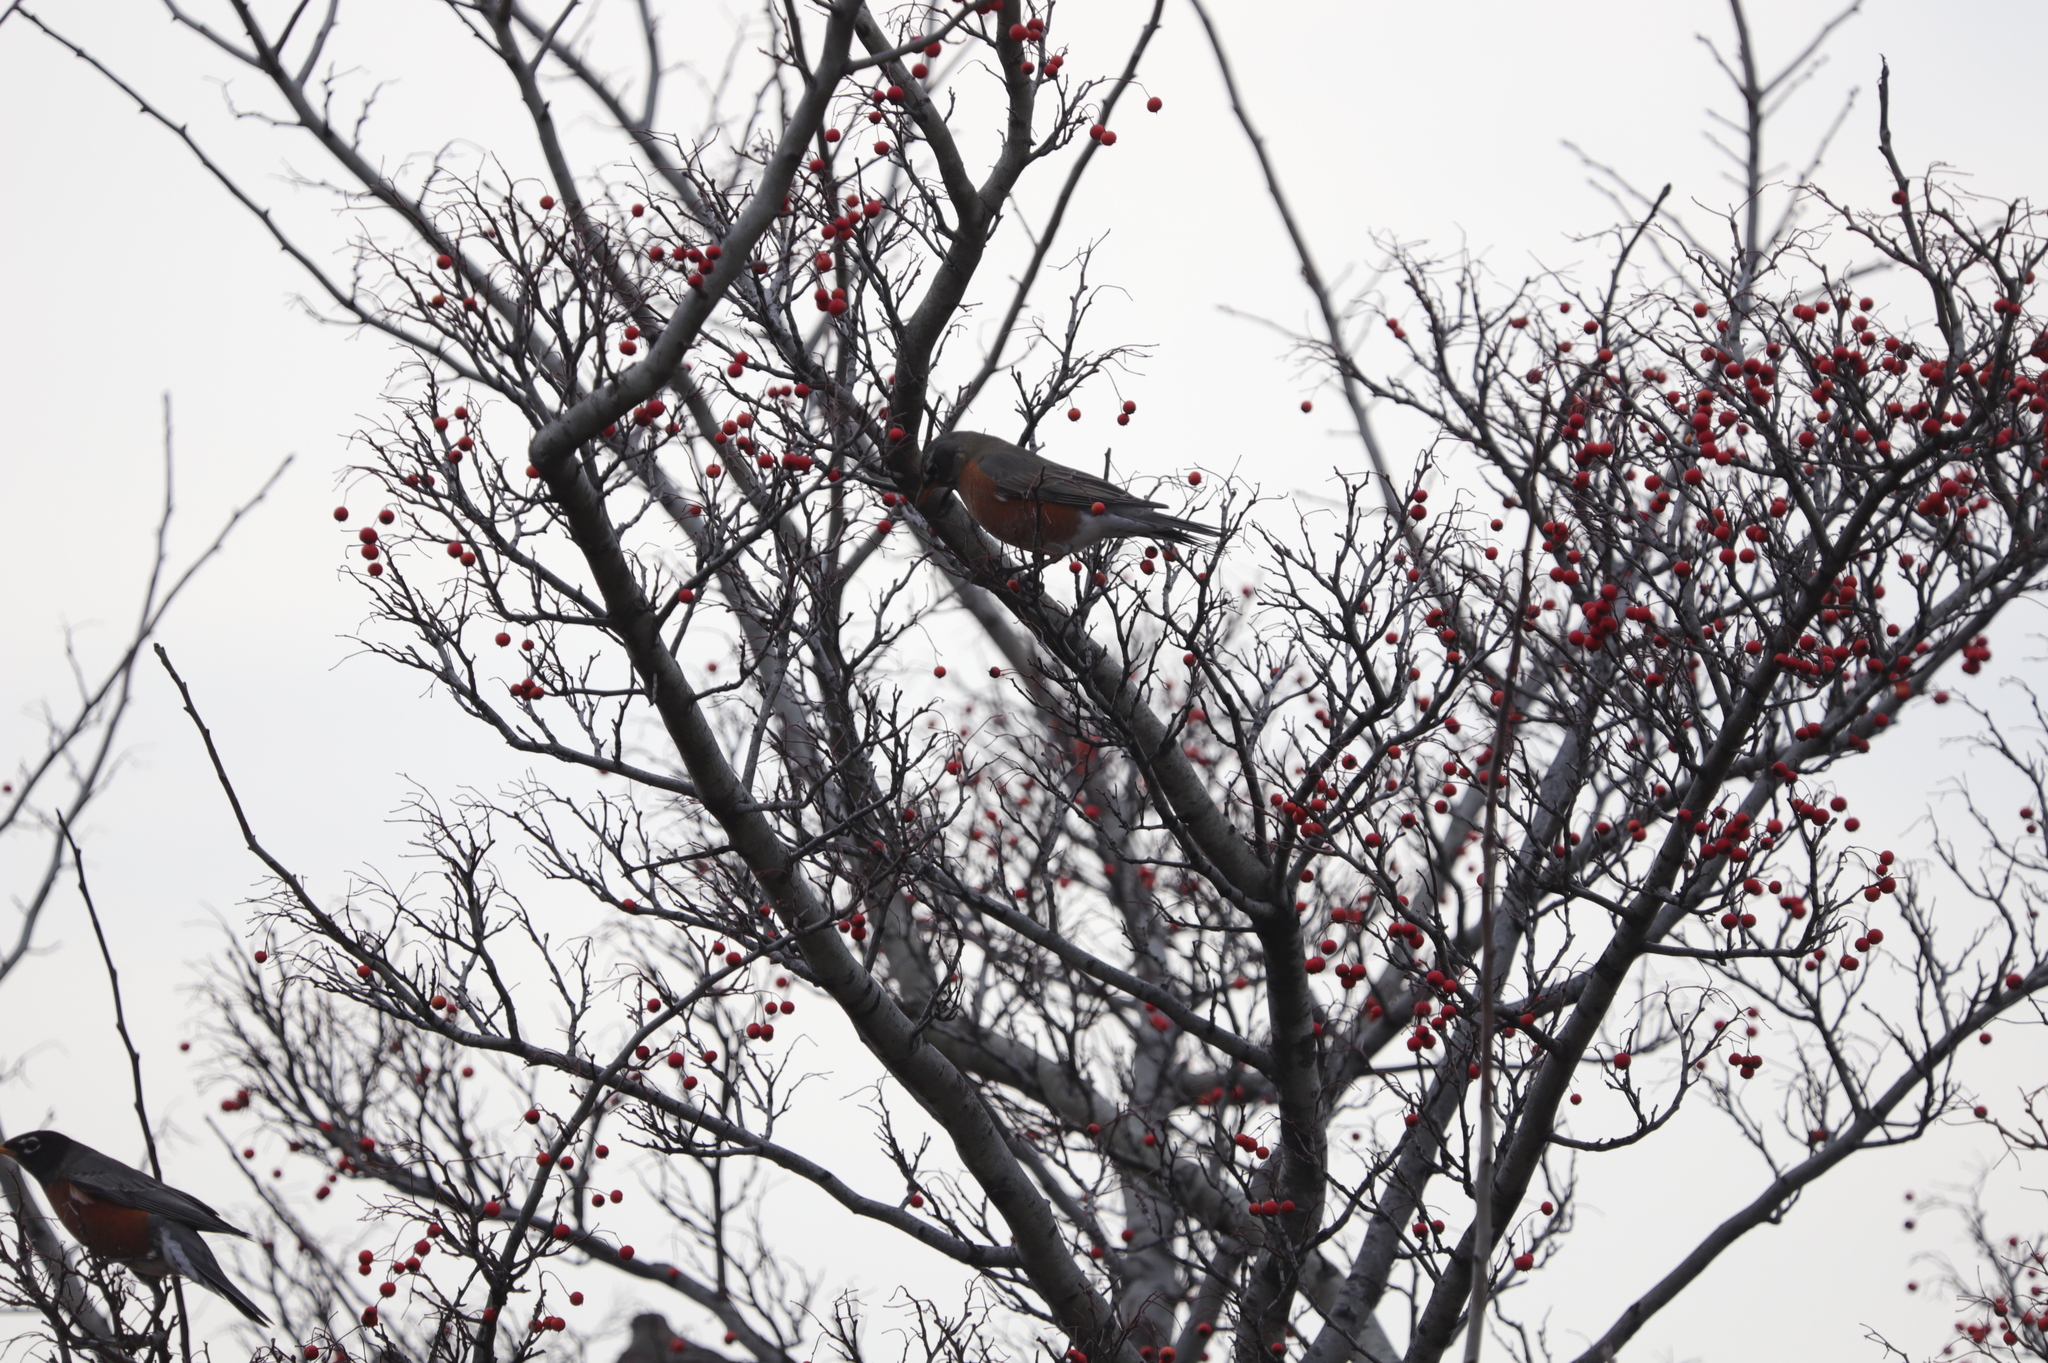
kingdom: Animalia
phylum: Chordata
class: Aves
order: Passeriformes
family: Turdidae
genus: Turdus
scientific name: Turdus migratorius
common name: American robin
